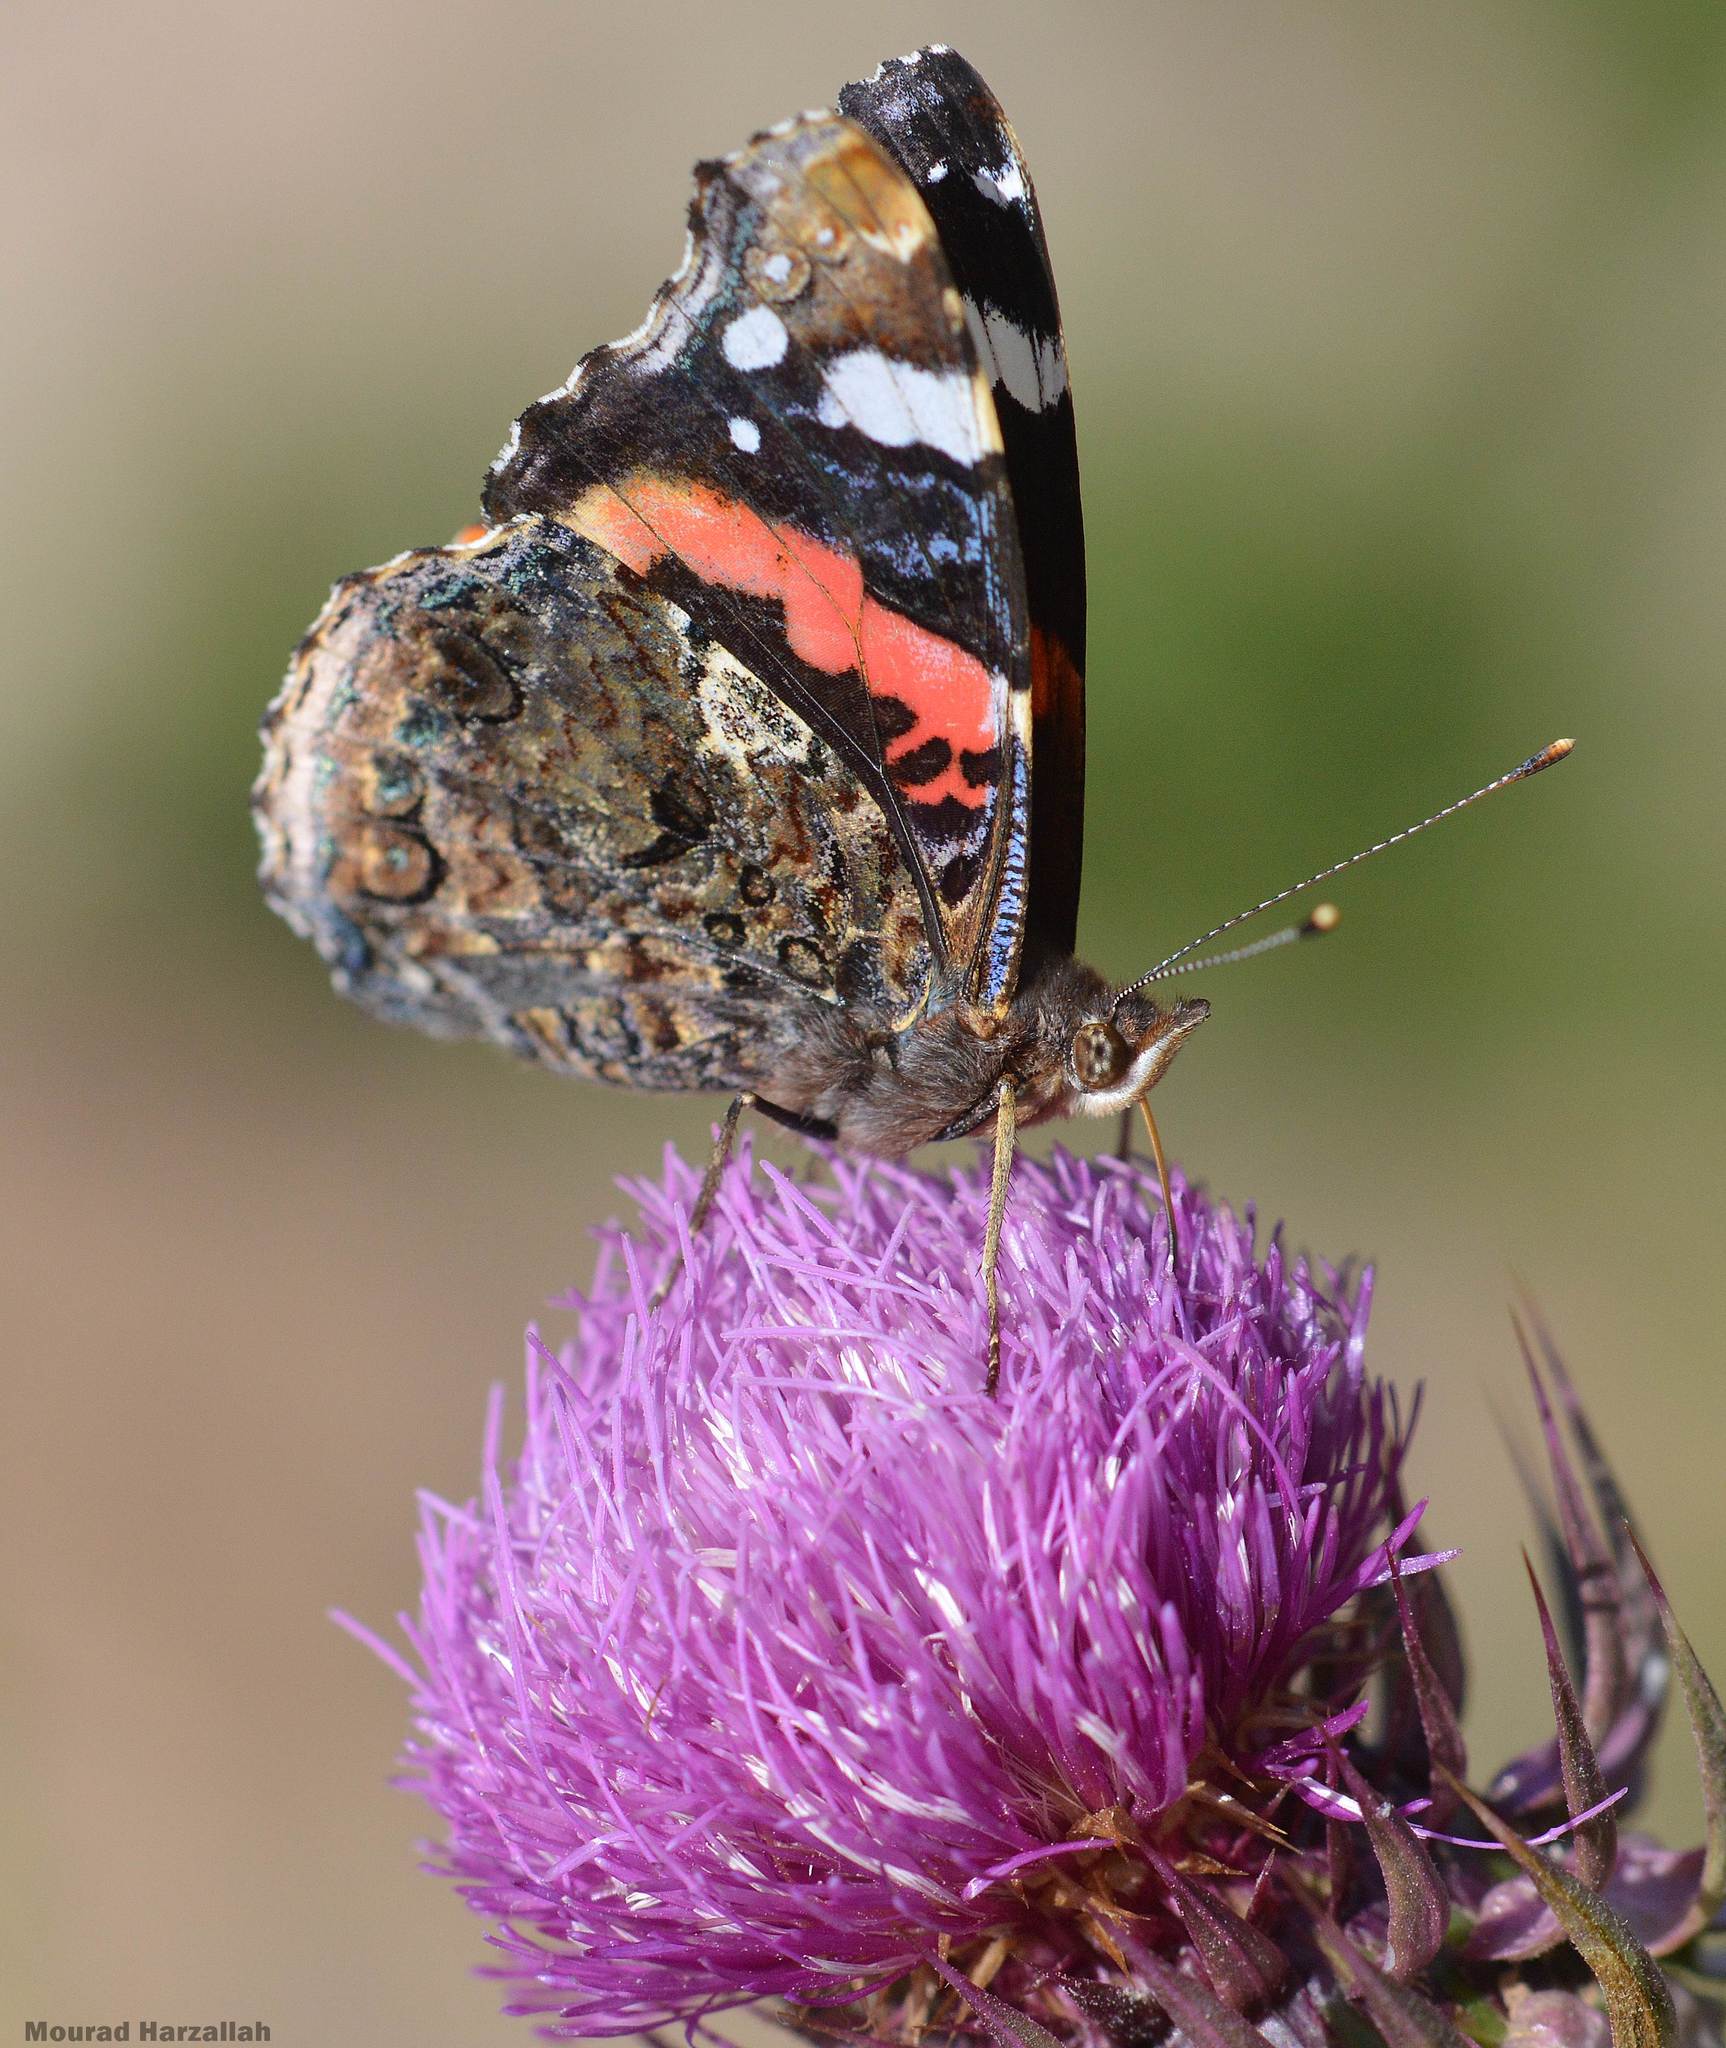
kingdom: Animalia
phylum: Arthropoda
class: Insecta
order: Lepidoptera
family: Nymphalidae
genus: Vanessa
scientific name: Vanessa atalanta
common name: Red admiral
